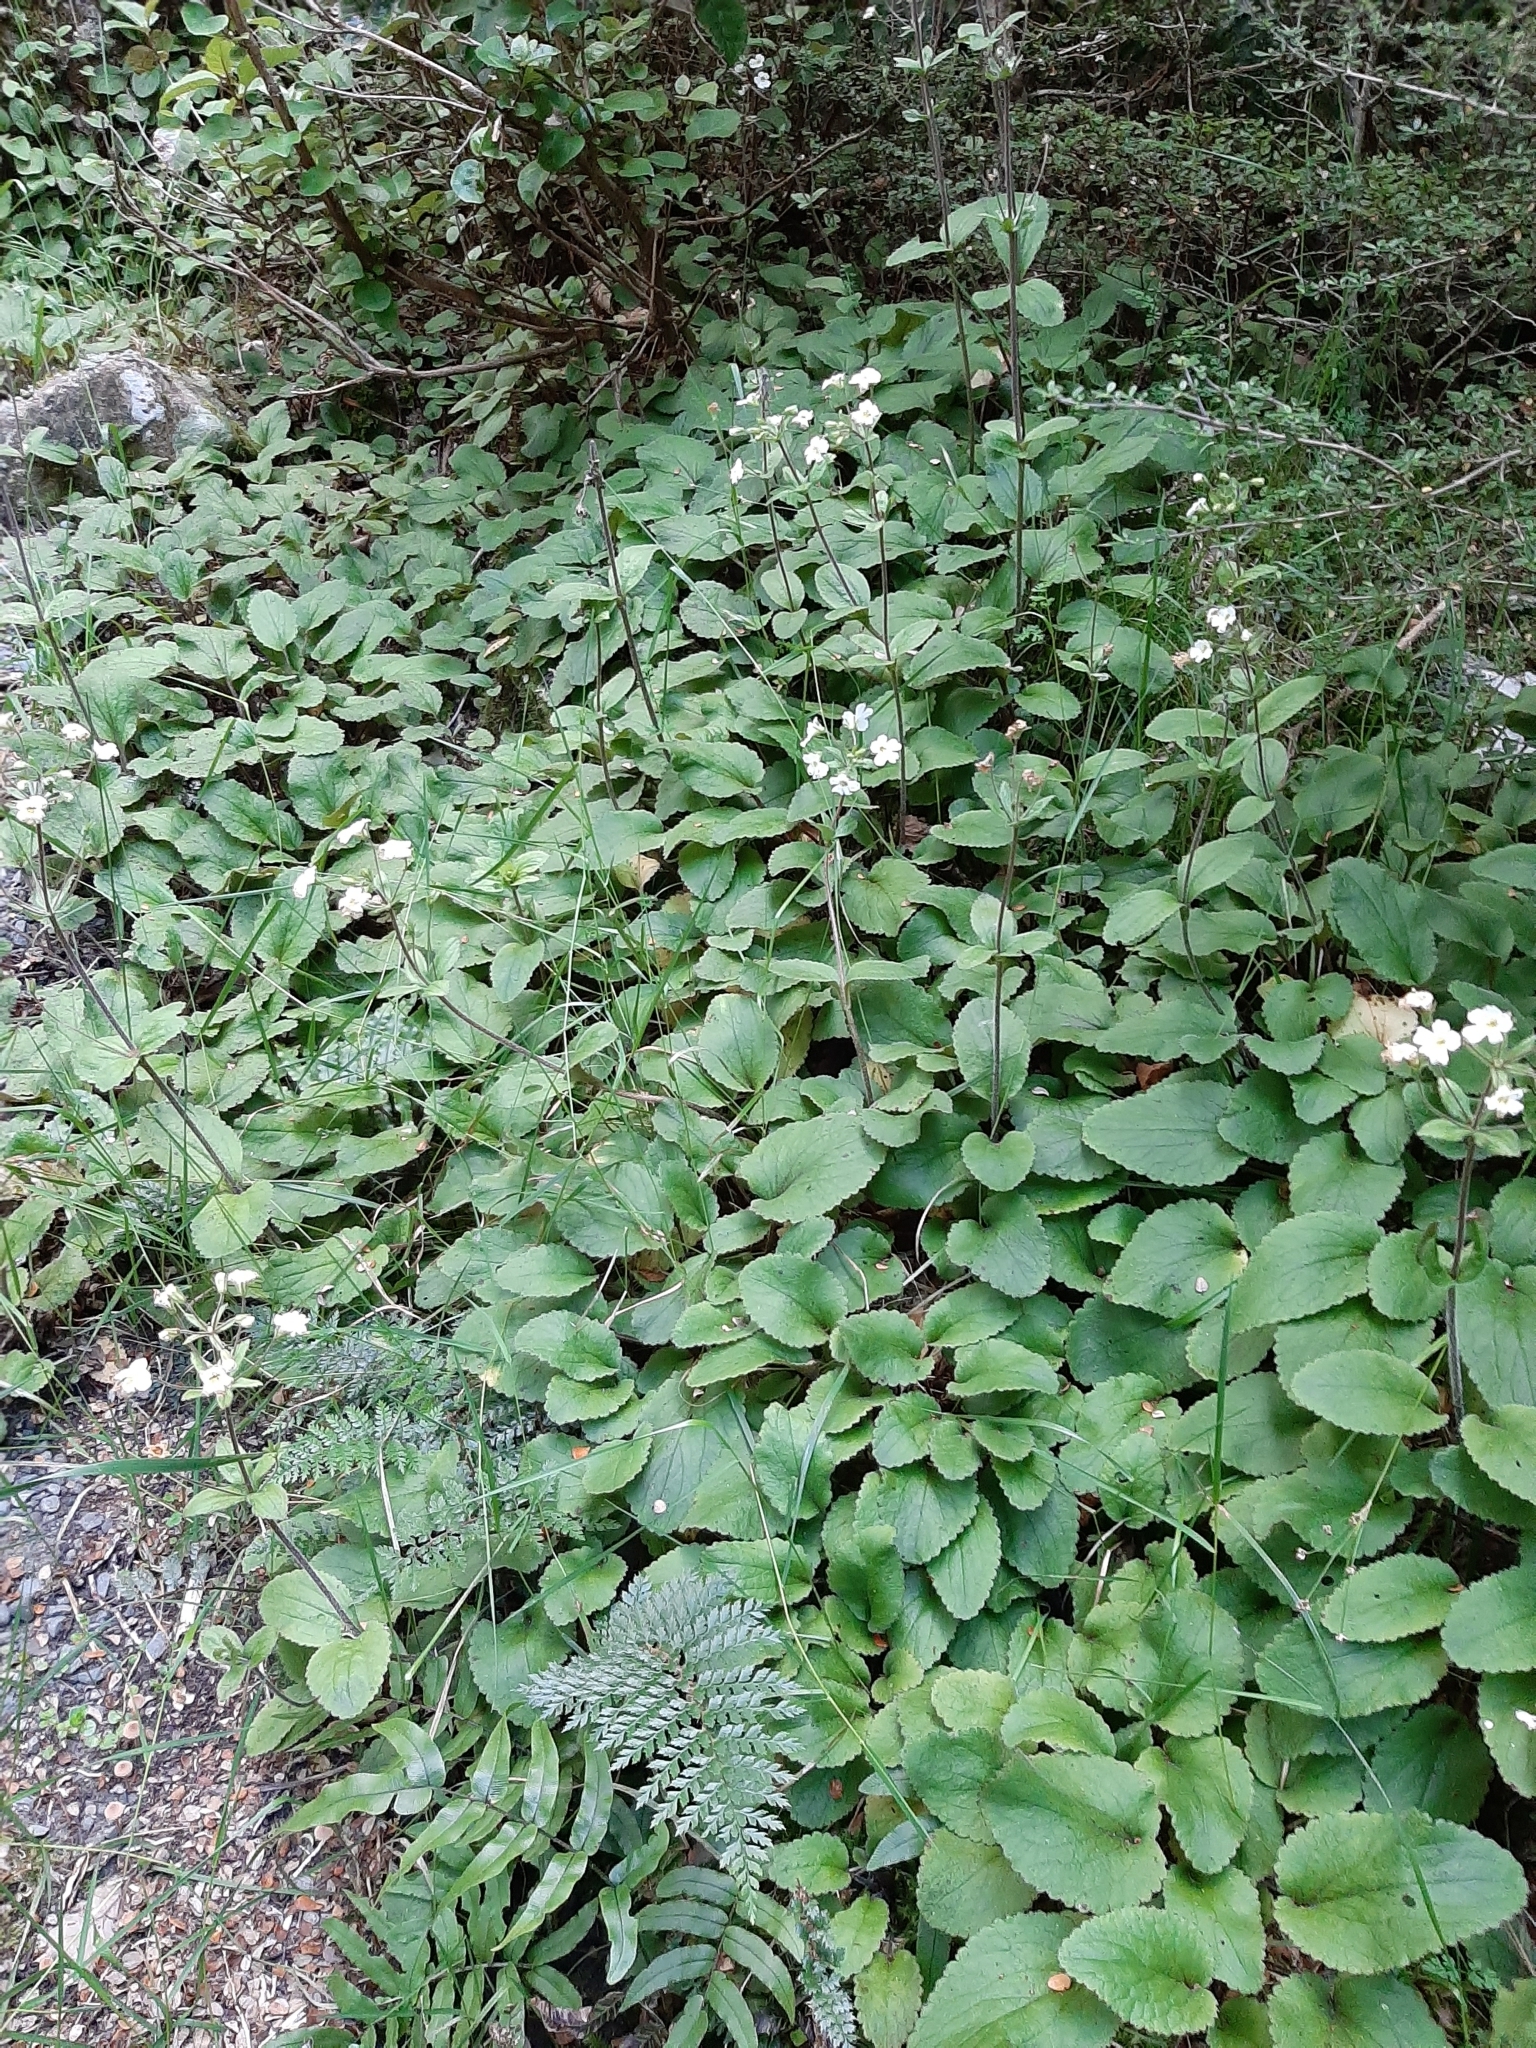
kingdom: Plantae
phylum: Tracheophyta
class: Magnoliopsida
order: Lamiales
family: Plantaginaceae
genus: Ourisia
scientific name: Ourisia macrocarpa
